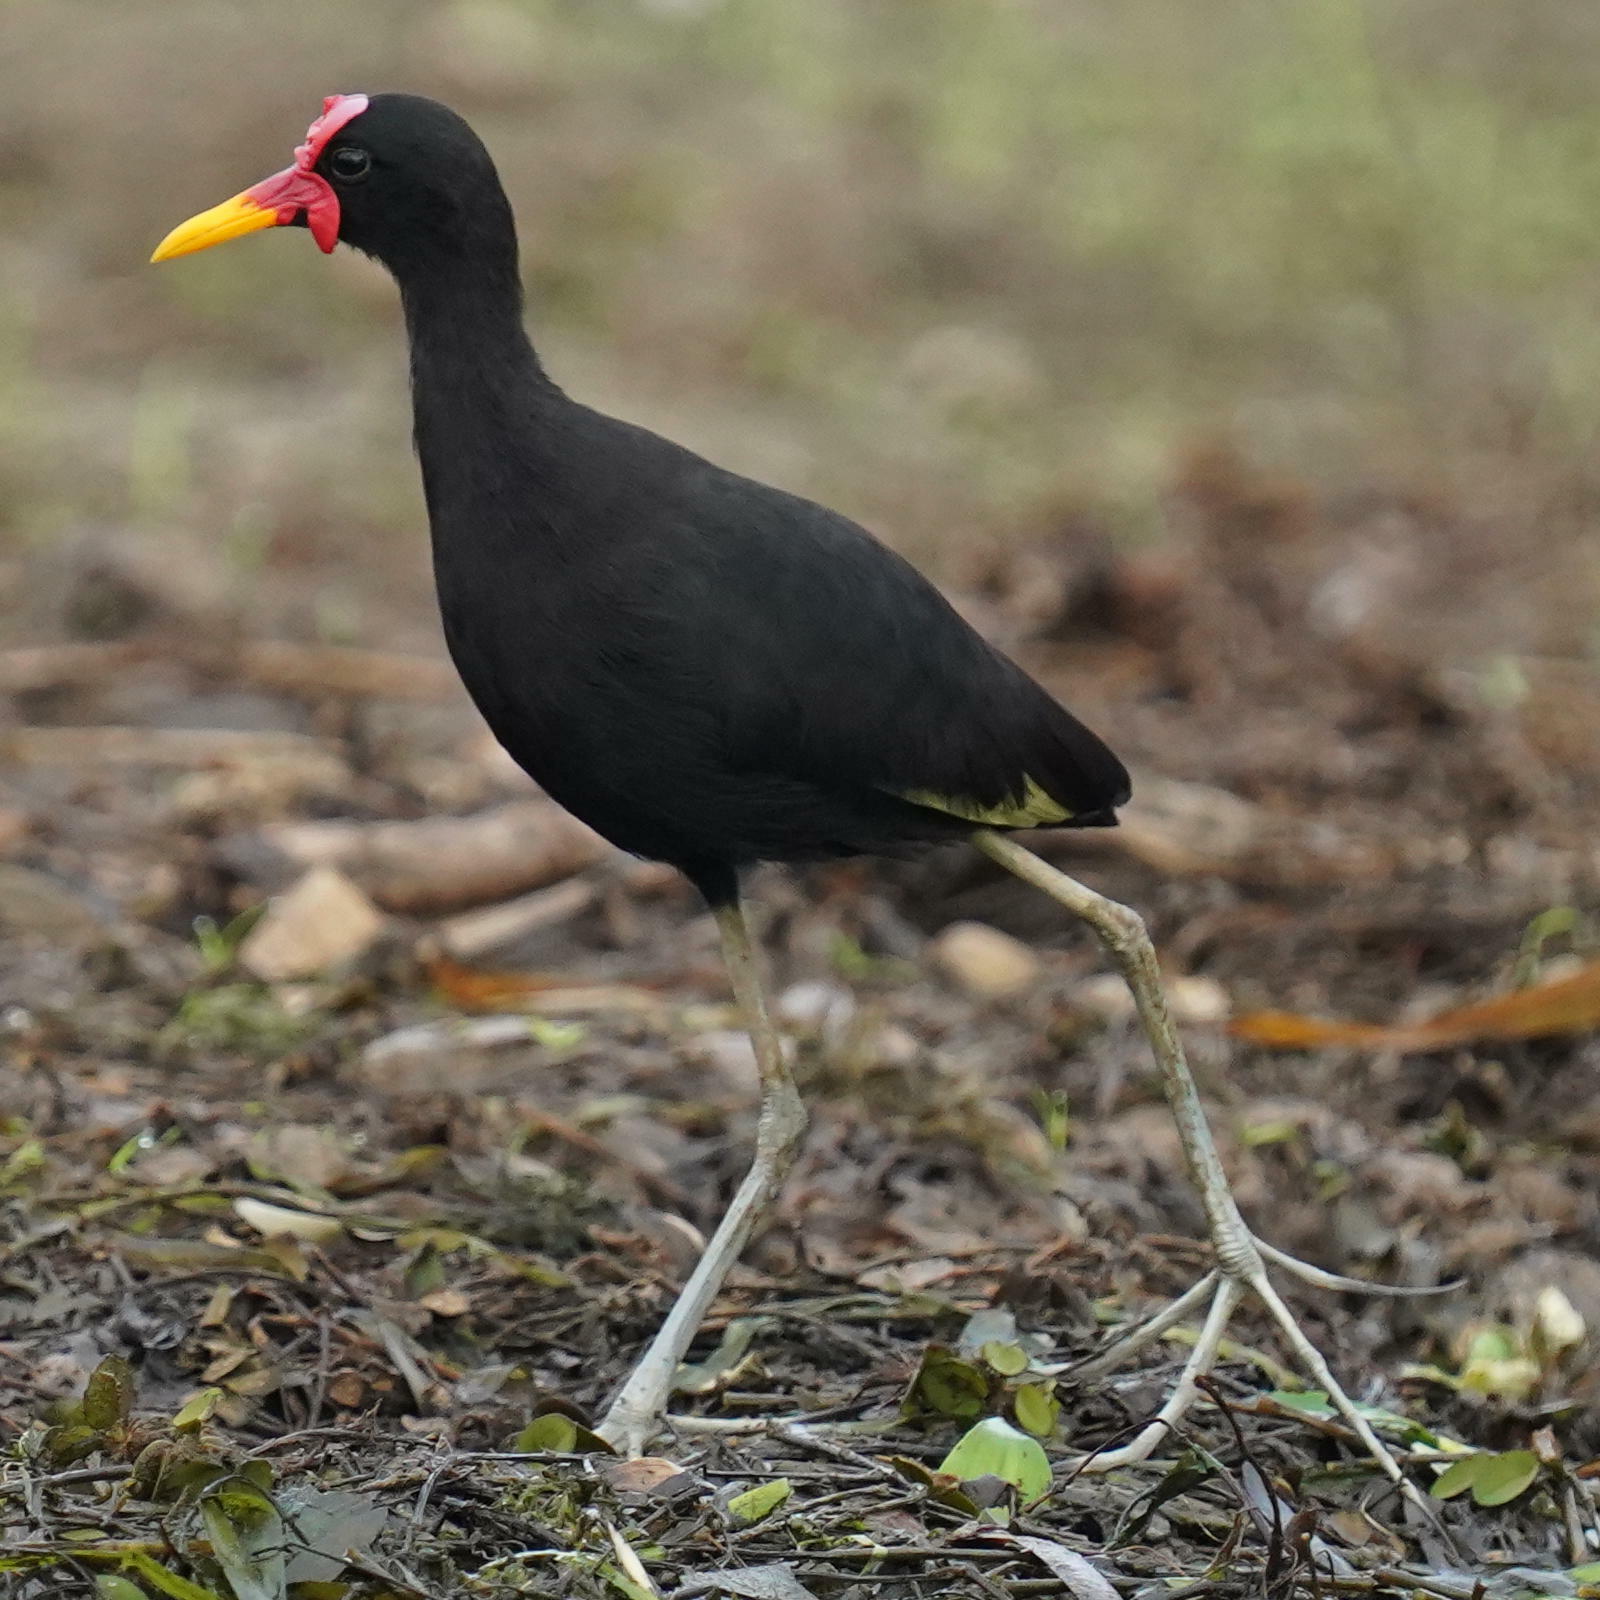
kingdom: Animalia
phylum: Chordata
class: Aves
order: Charadriiformes
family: Jacanidae
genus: Jacana
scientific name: Jacana jacana
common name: Wattled jacana
